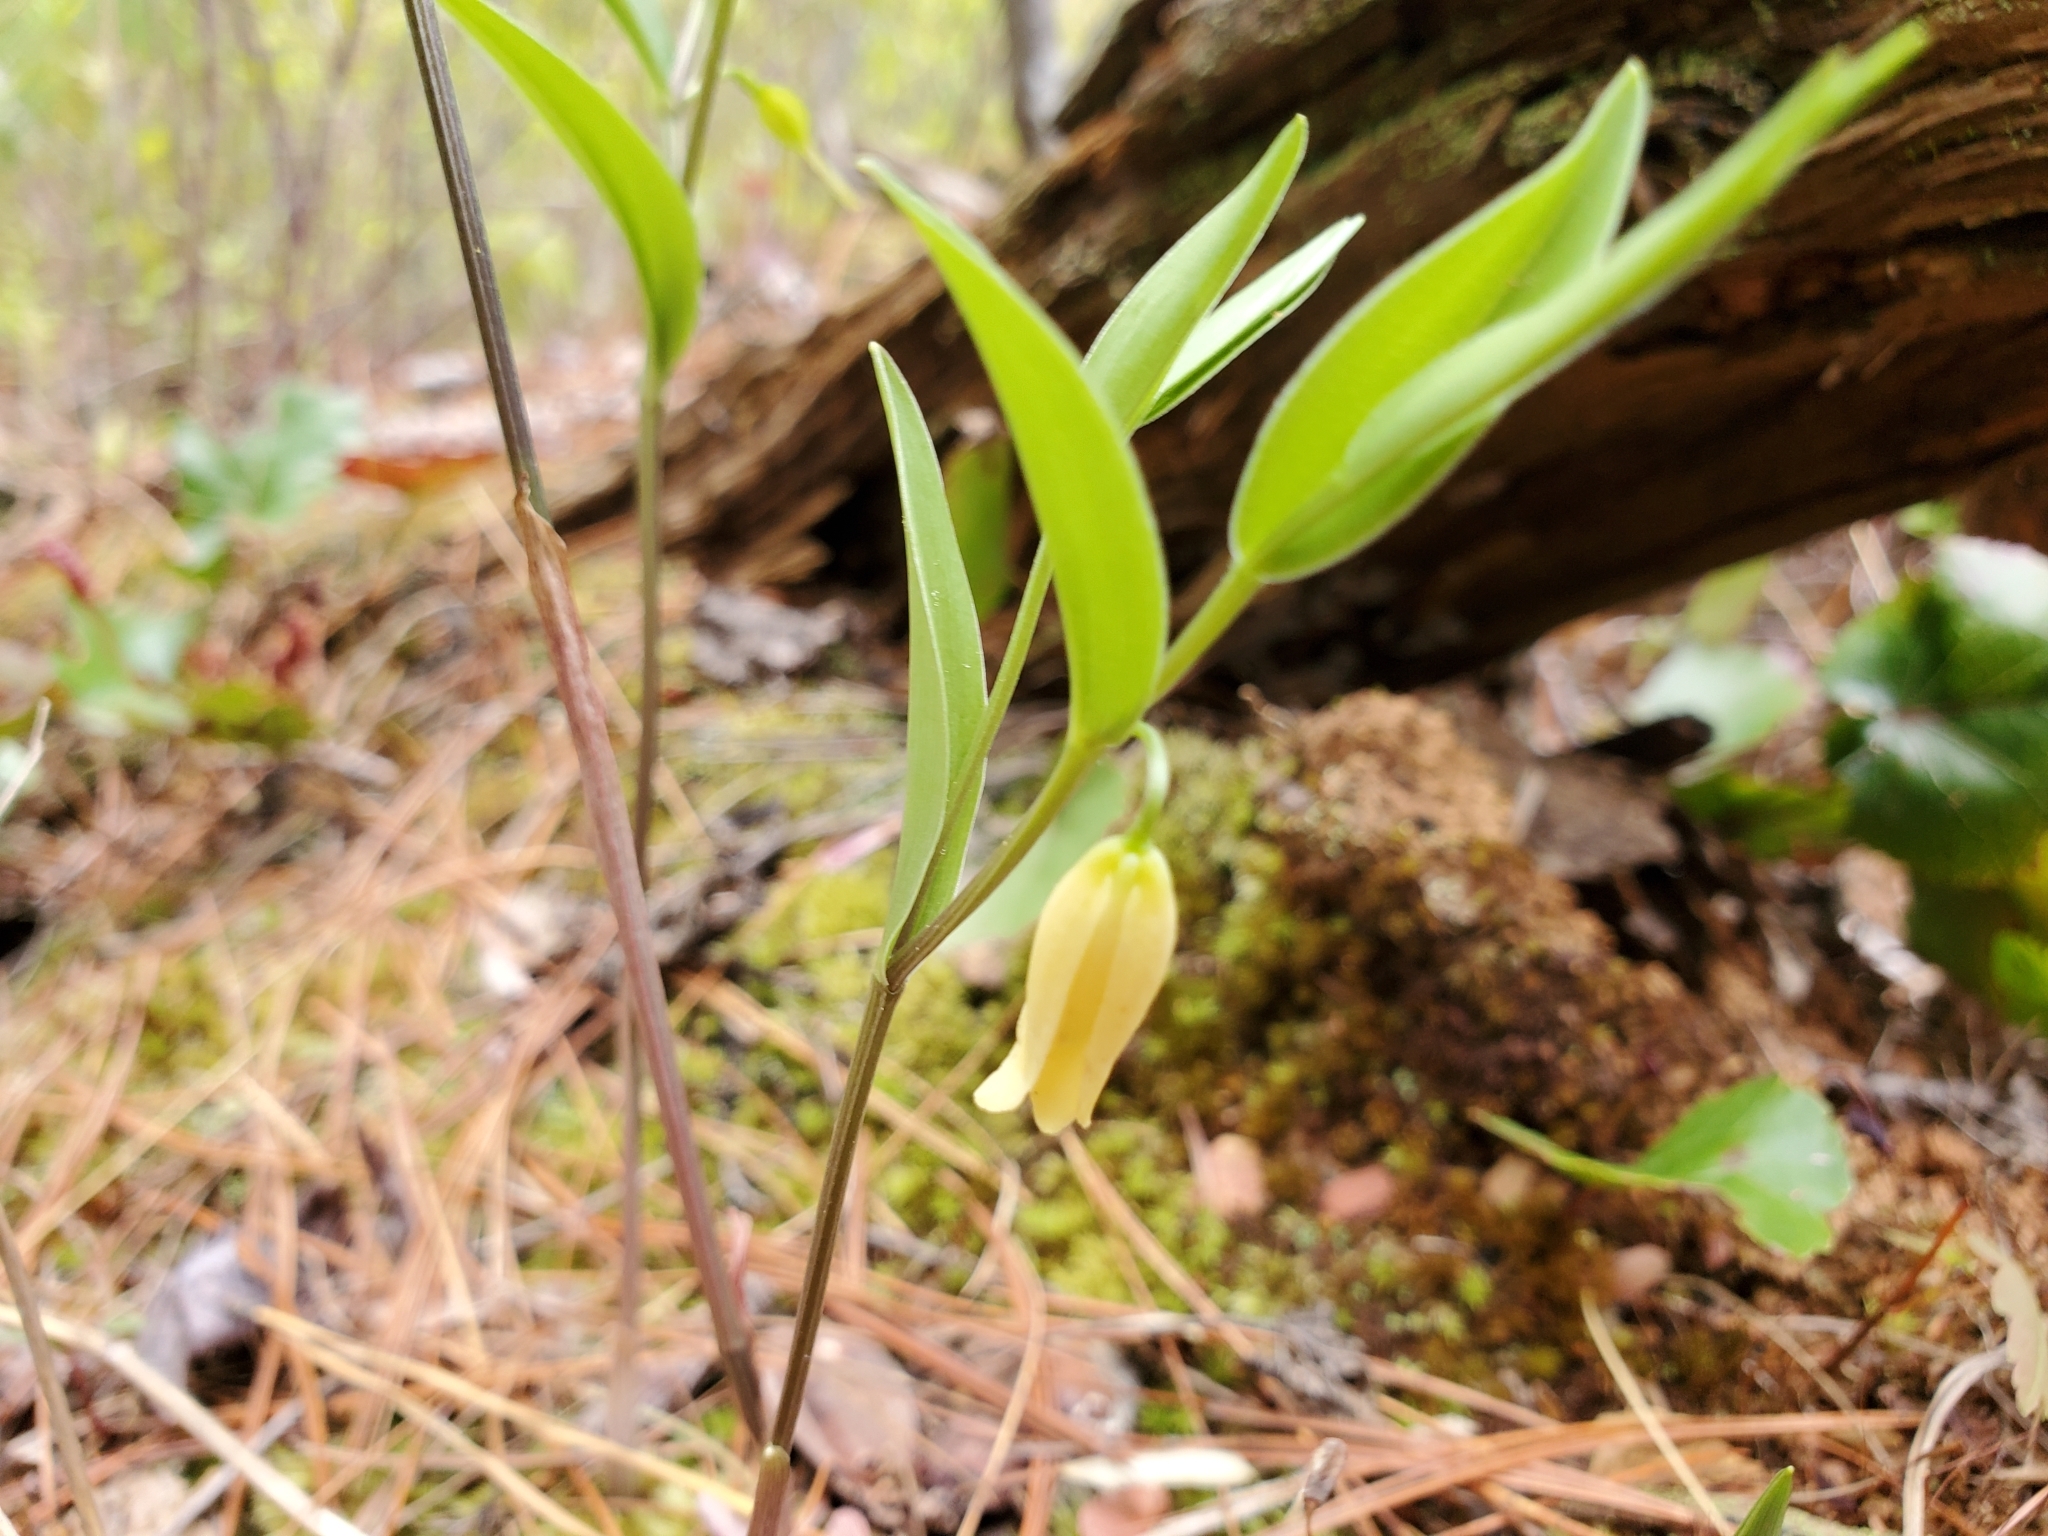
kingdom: Plantae
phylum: Tracheophyta
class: Liliopsida
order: Liliales
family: Colchicaceae
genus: Uvularia
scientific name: Uvularia puberula
